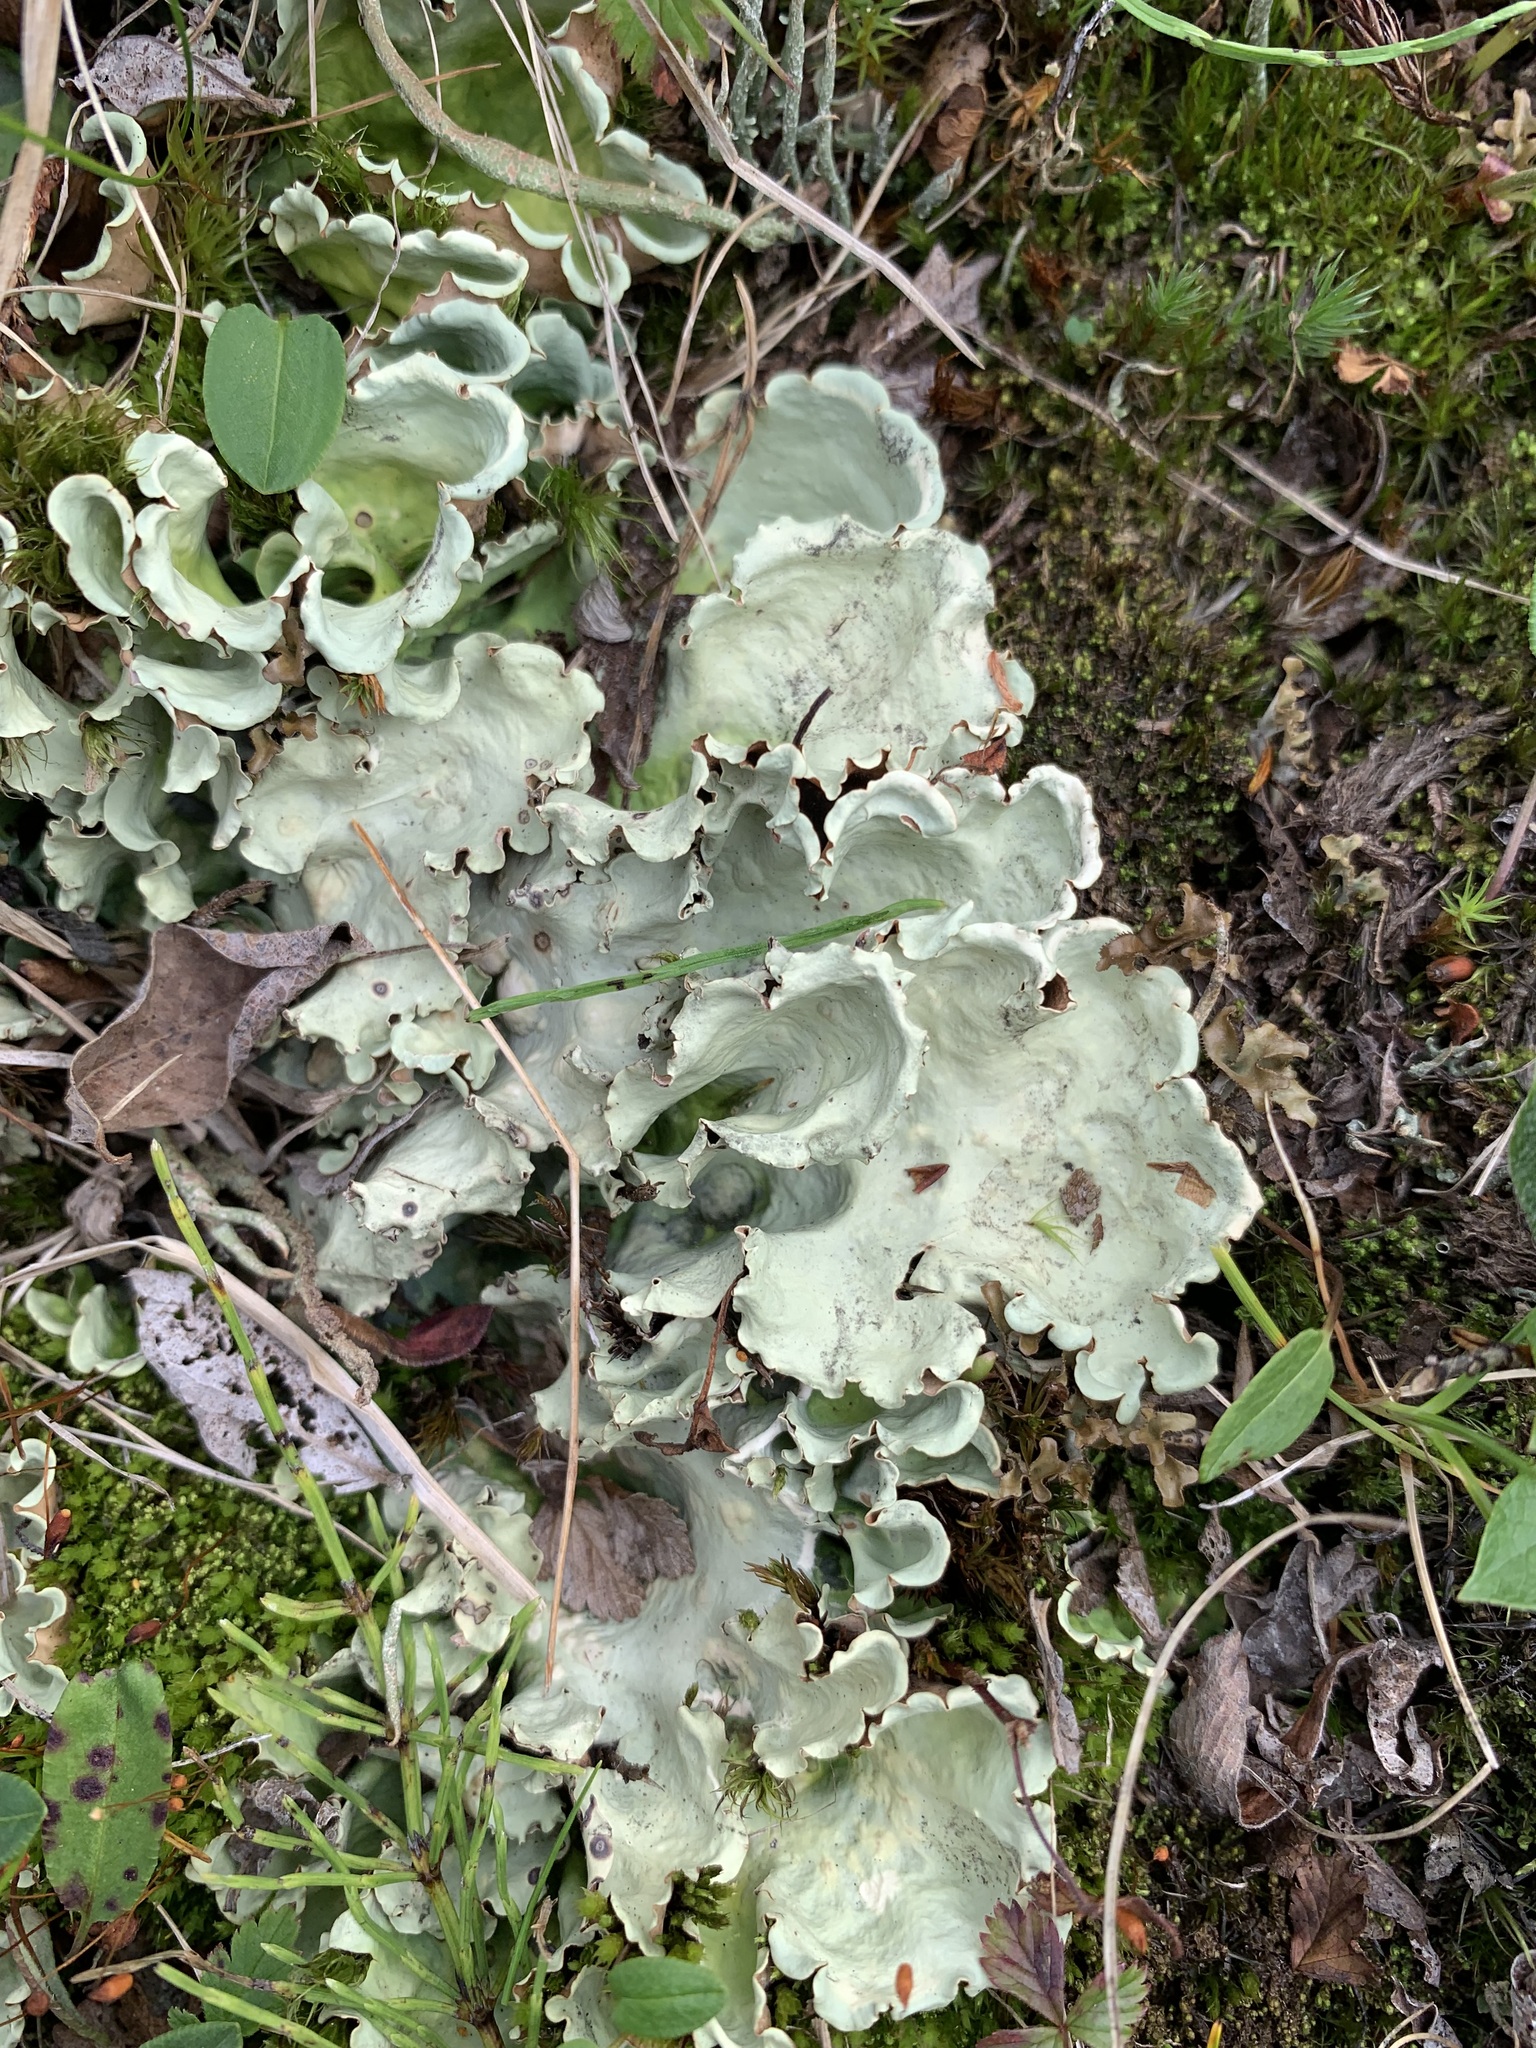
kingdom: Fungi
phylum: Ascomycota
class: Lecanoromycetes
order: Peltigerales
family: Nephromataceae
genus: Nephroma
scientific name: Nephroma arcticum
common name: Arctic kidney-lichen
